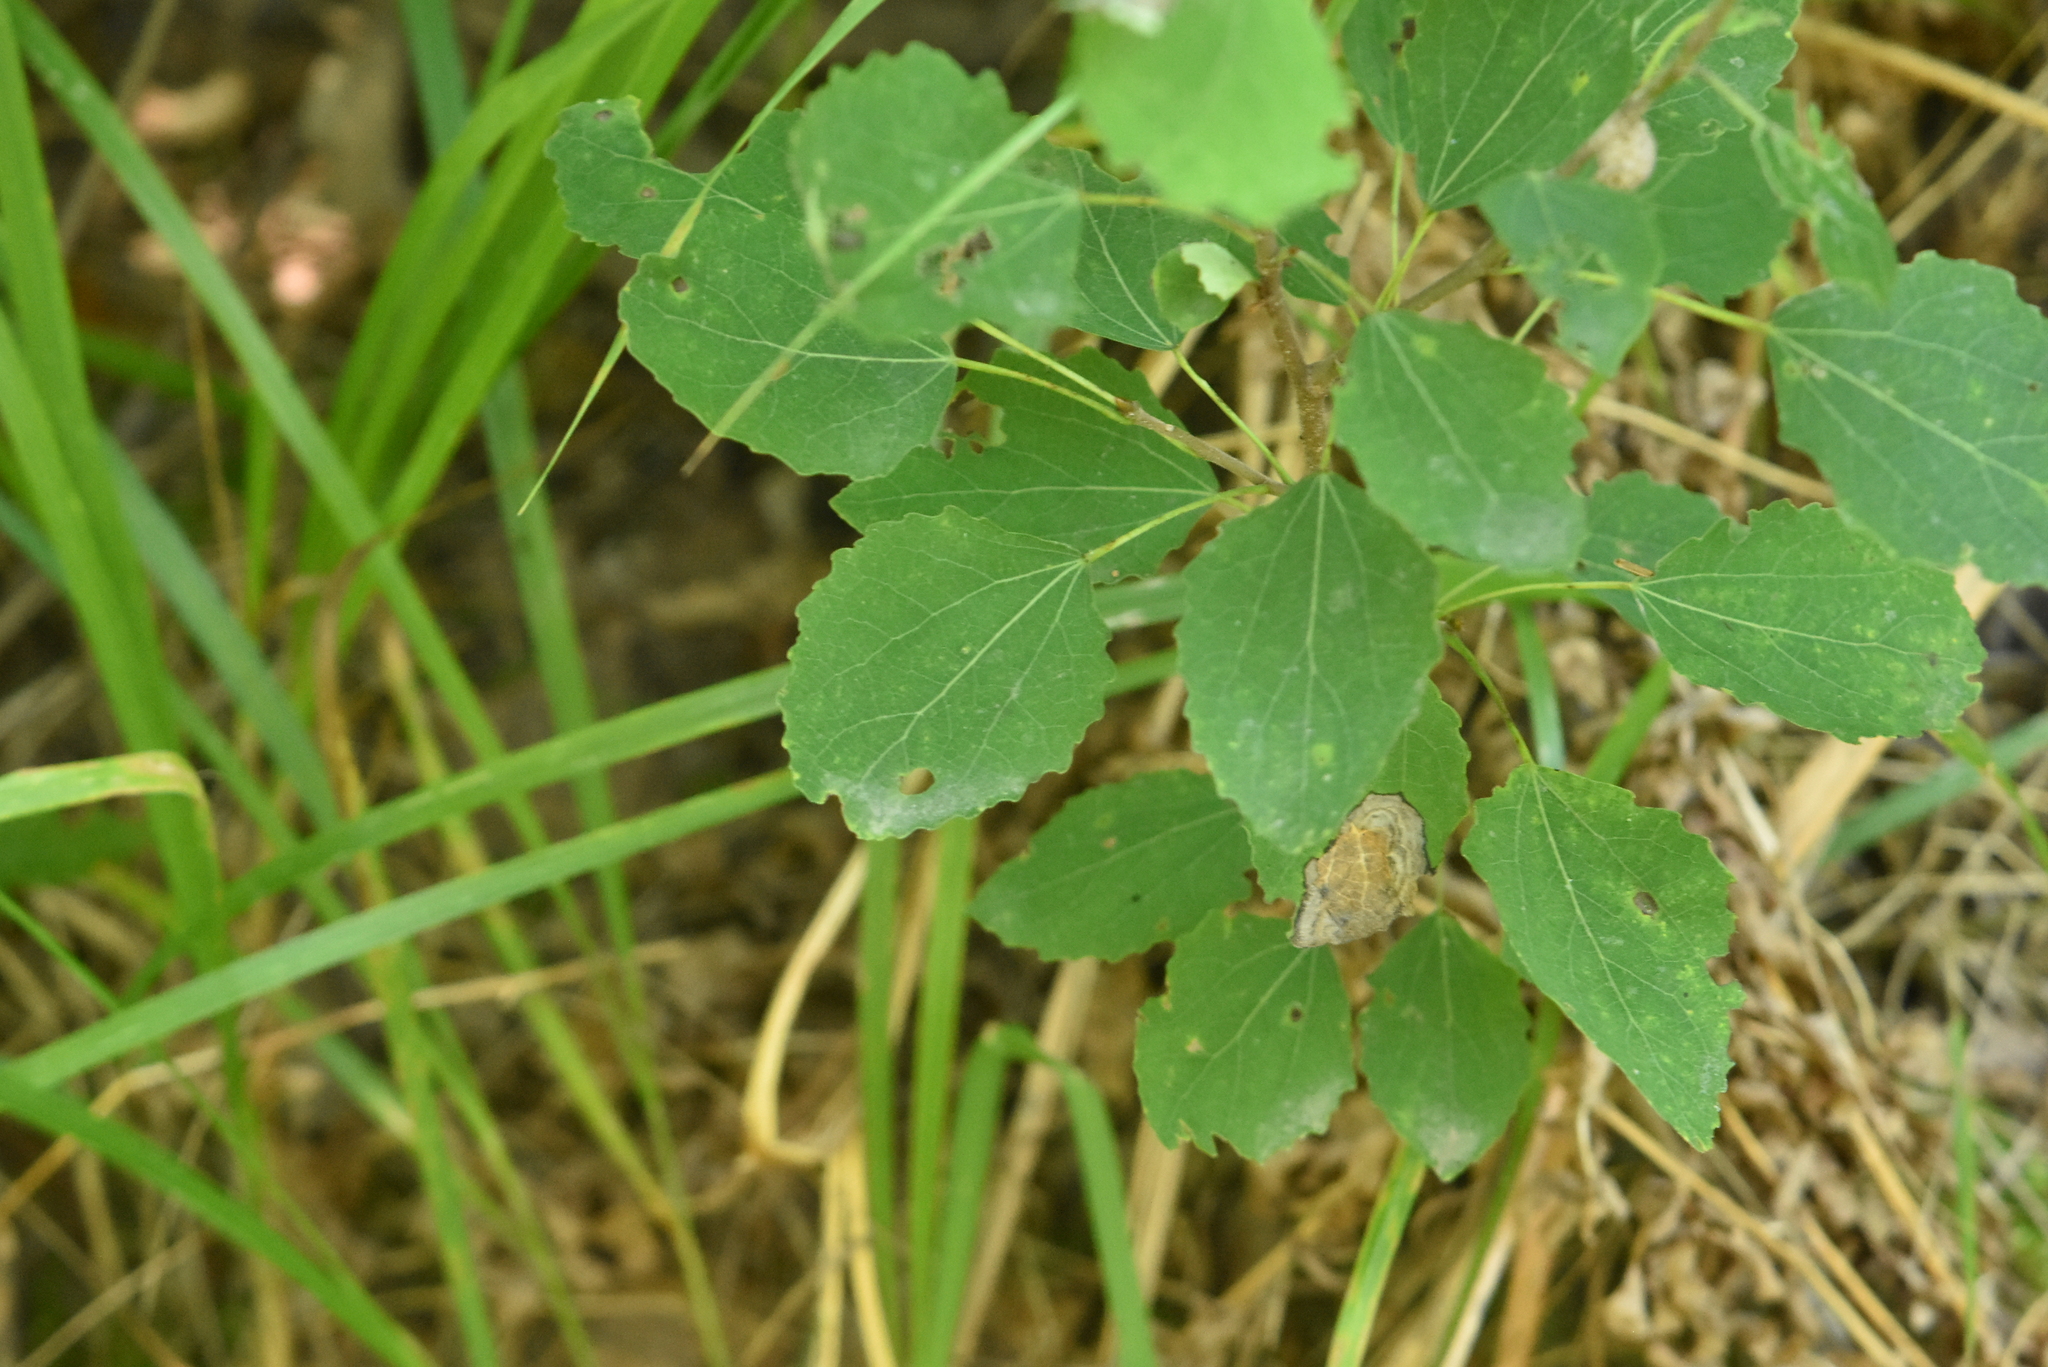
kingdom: Plantae
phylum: Tracheophyta
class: Magnoliopsida
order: Malpighiales
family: Salicaceae
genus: Populus
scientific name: Populus tremula
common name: European aspen
